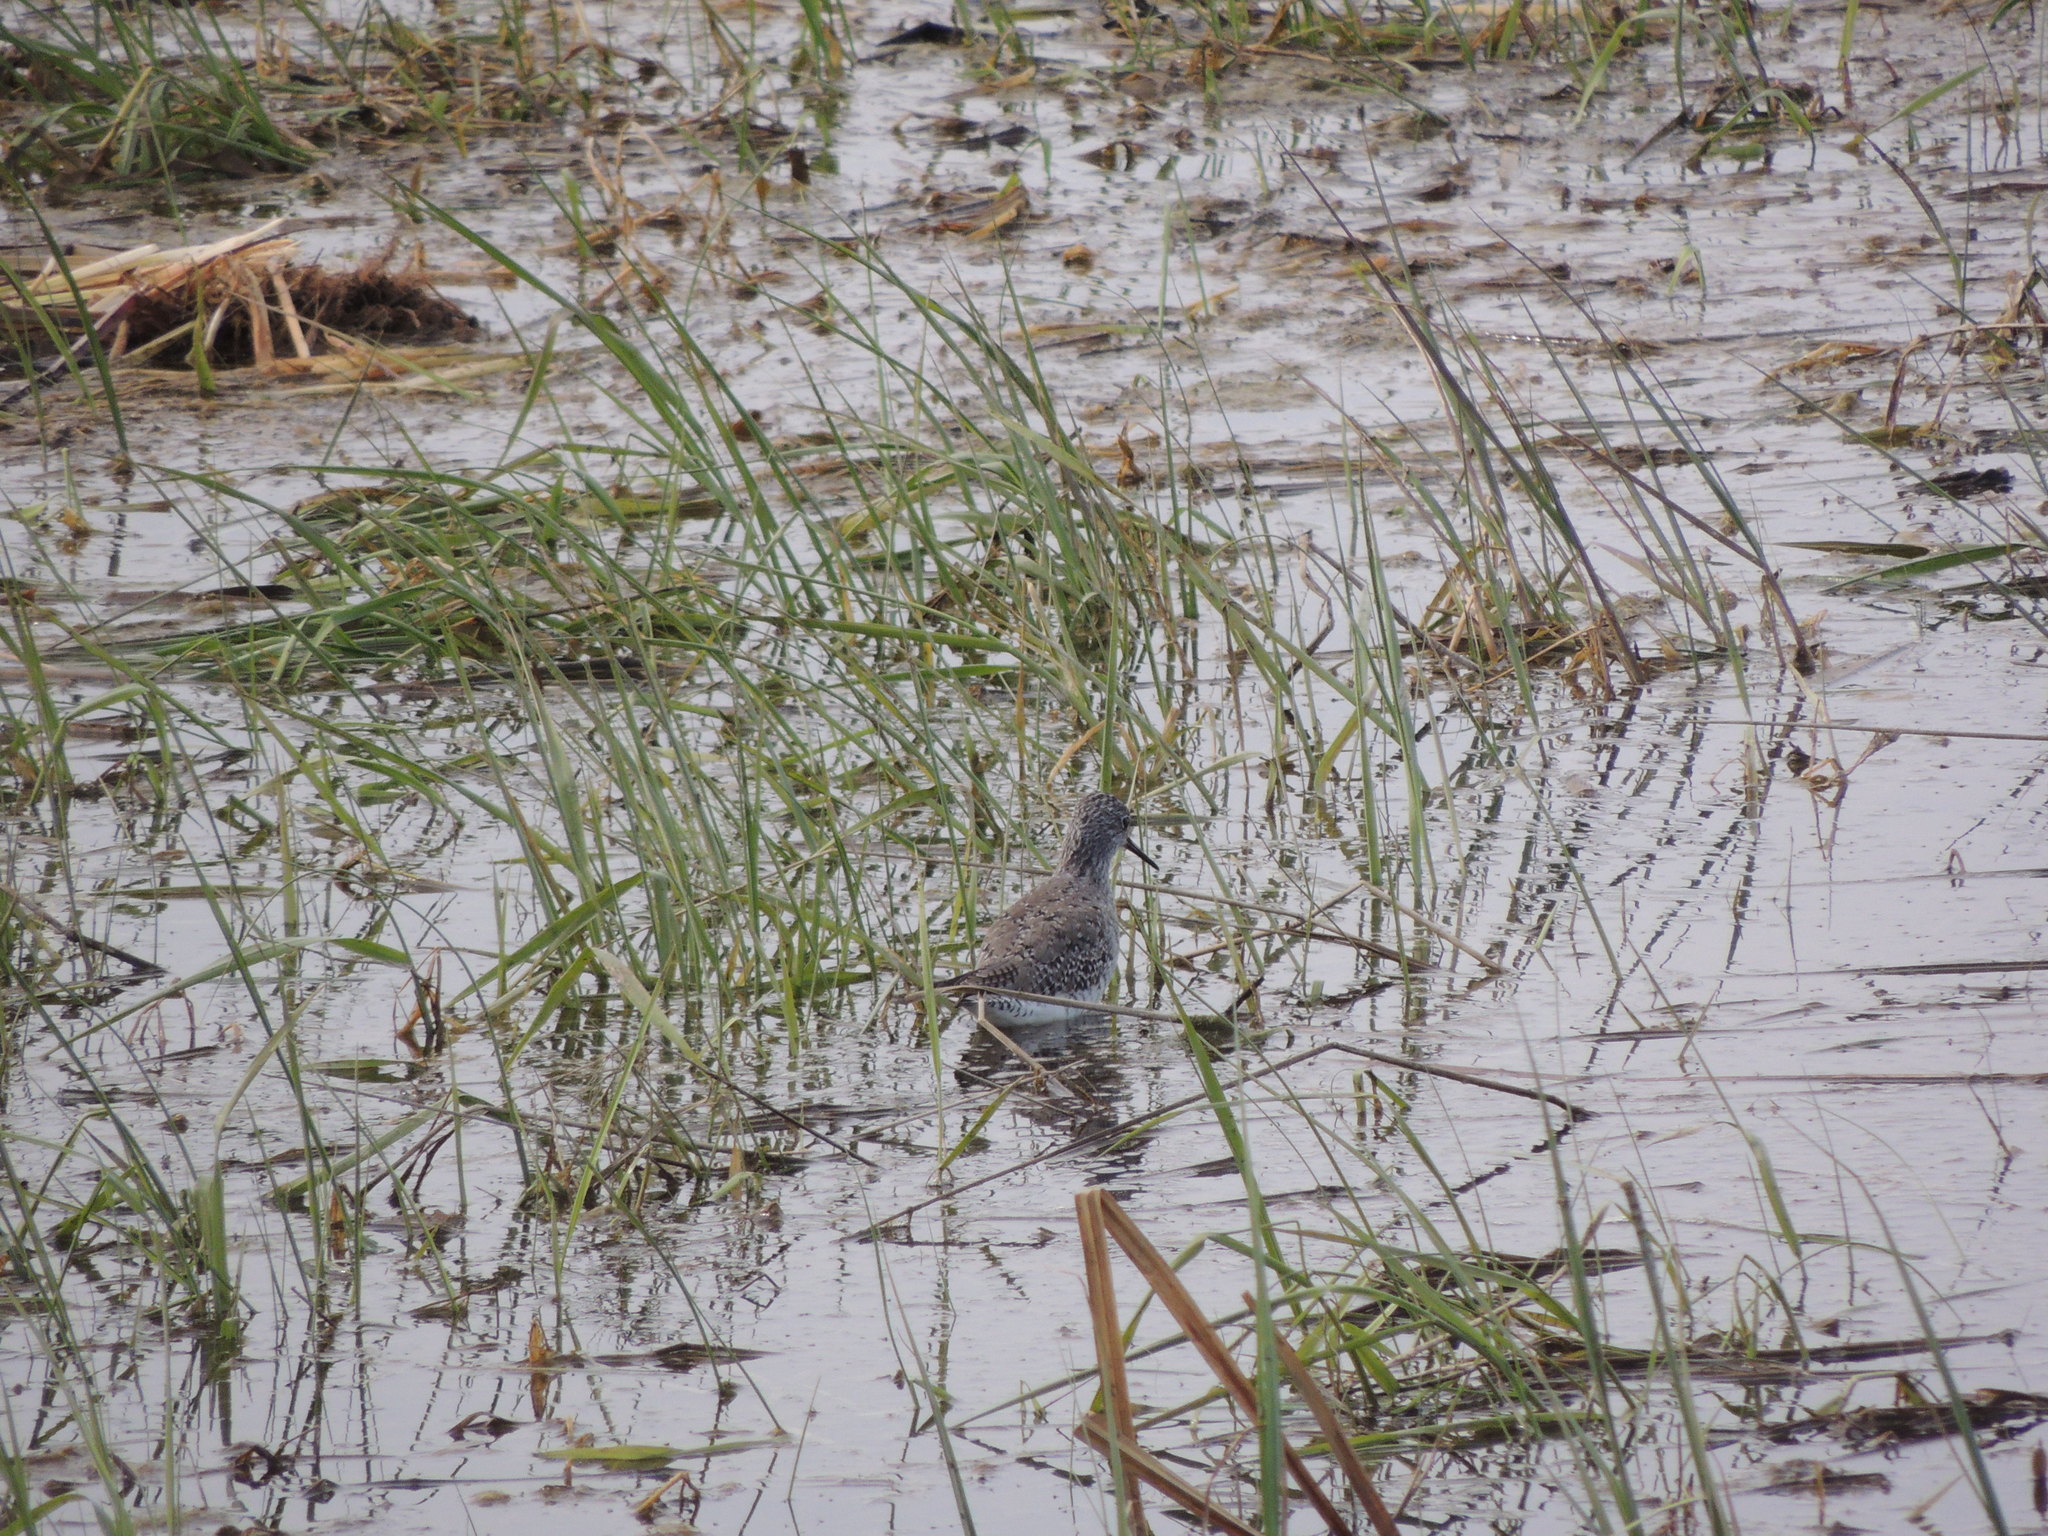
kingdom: Animalia
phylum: Chordata
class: Aves
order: Charadriiformes
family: Scolopacidae
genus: Tringa
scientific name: Tringa flavipes
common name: Lesser yellowlegs
